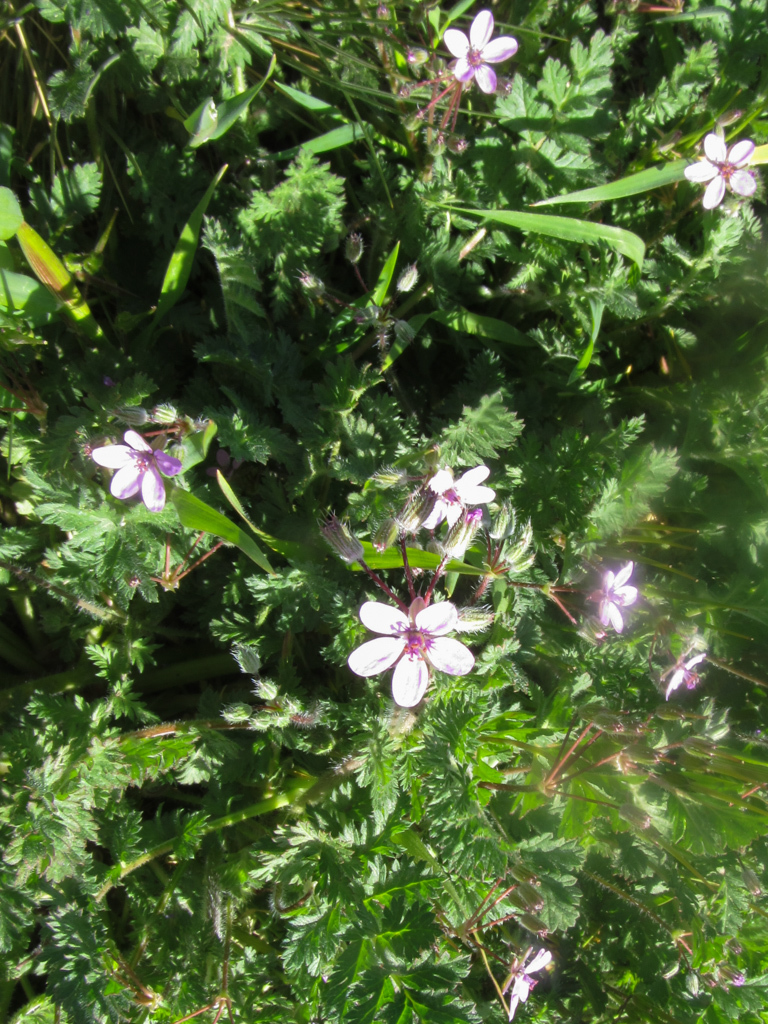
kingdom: Plantae
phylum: Tracheophyta
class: Magnoliopsida
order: Geraniales
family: Geraniaceae
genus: Erodium
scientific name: Erodium cicutarium
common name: Common stork's-bill
